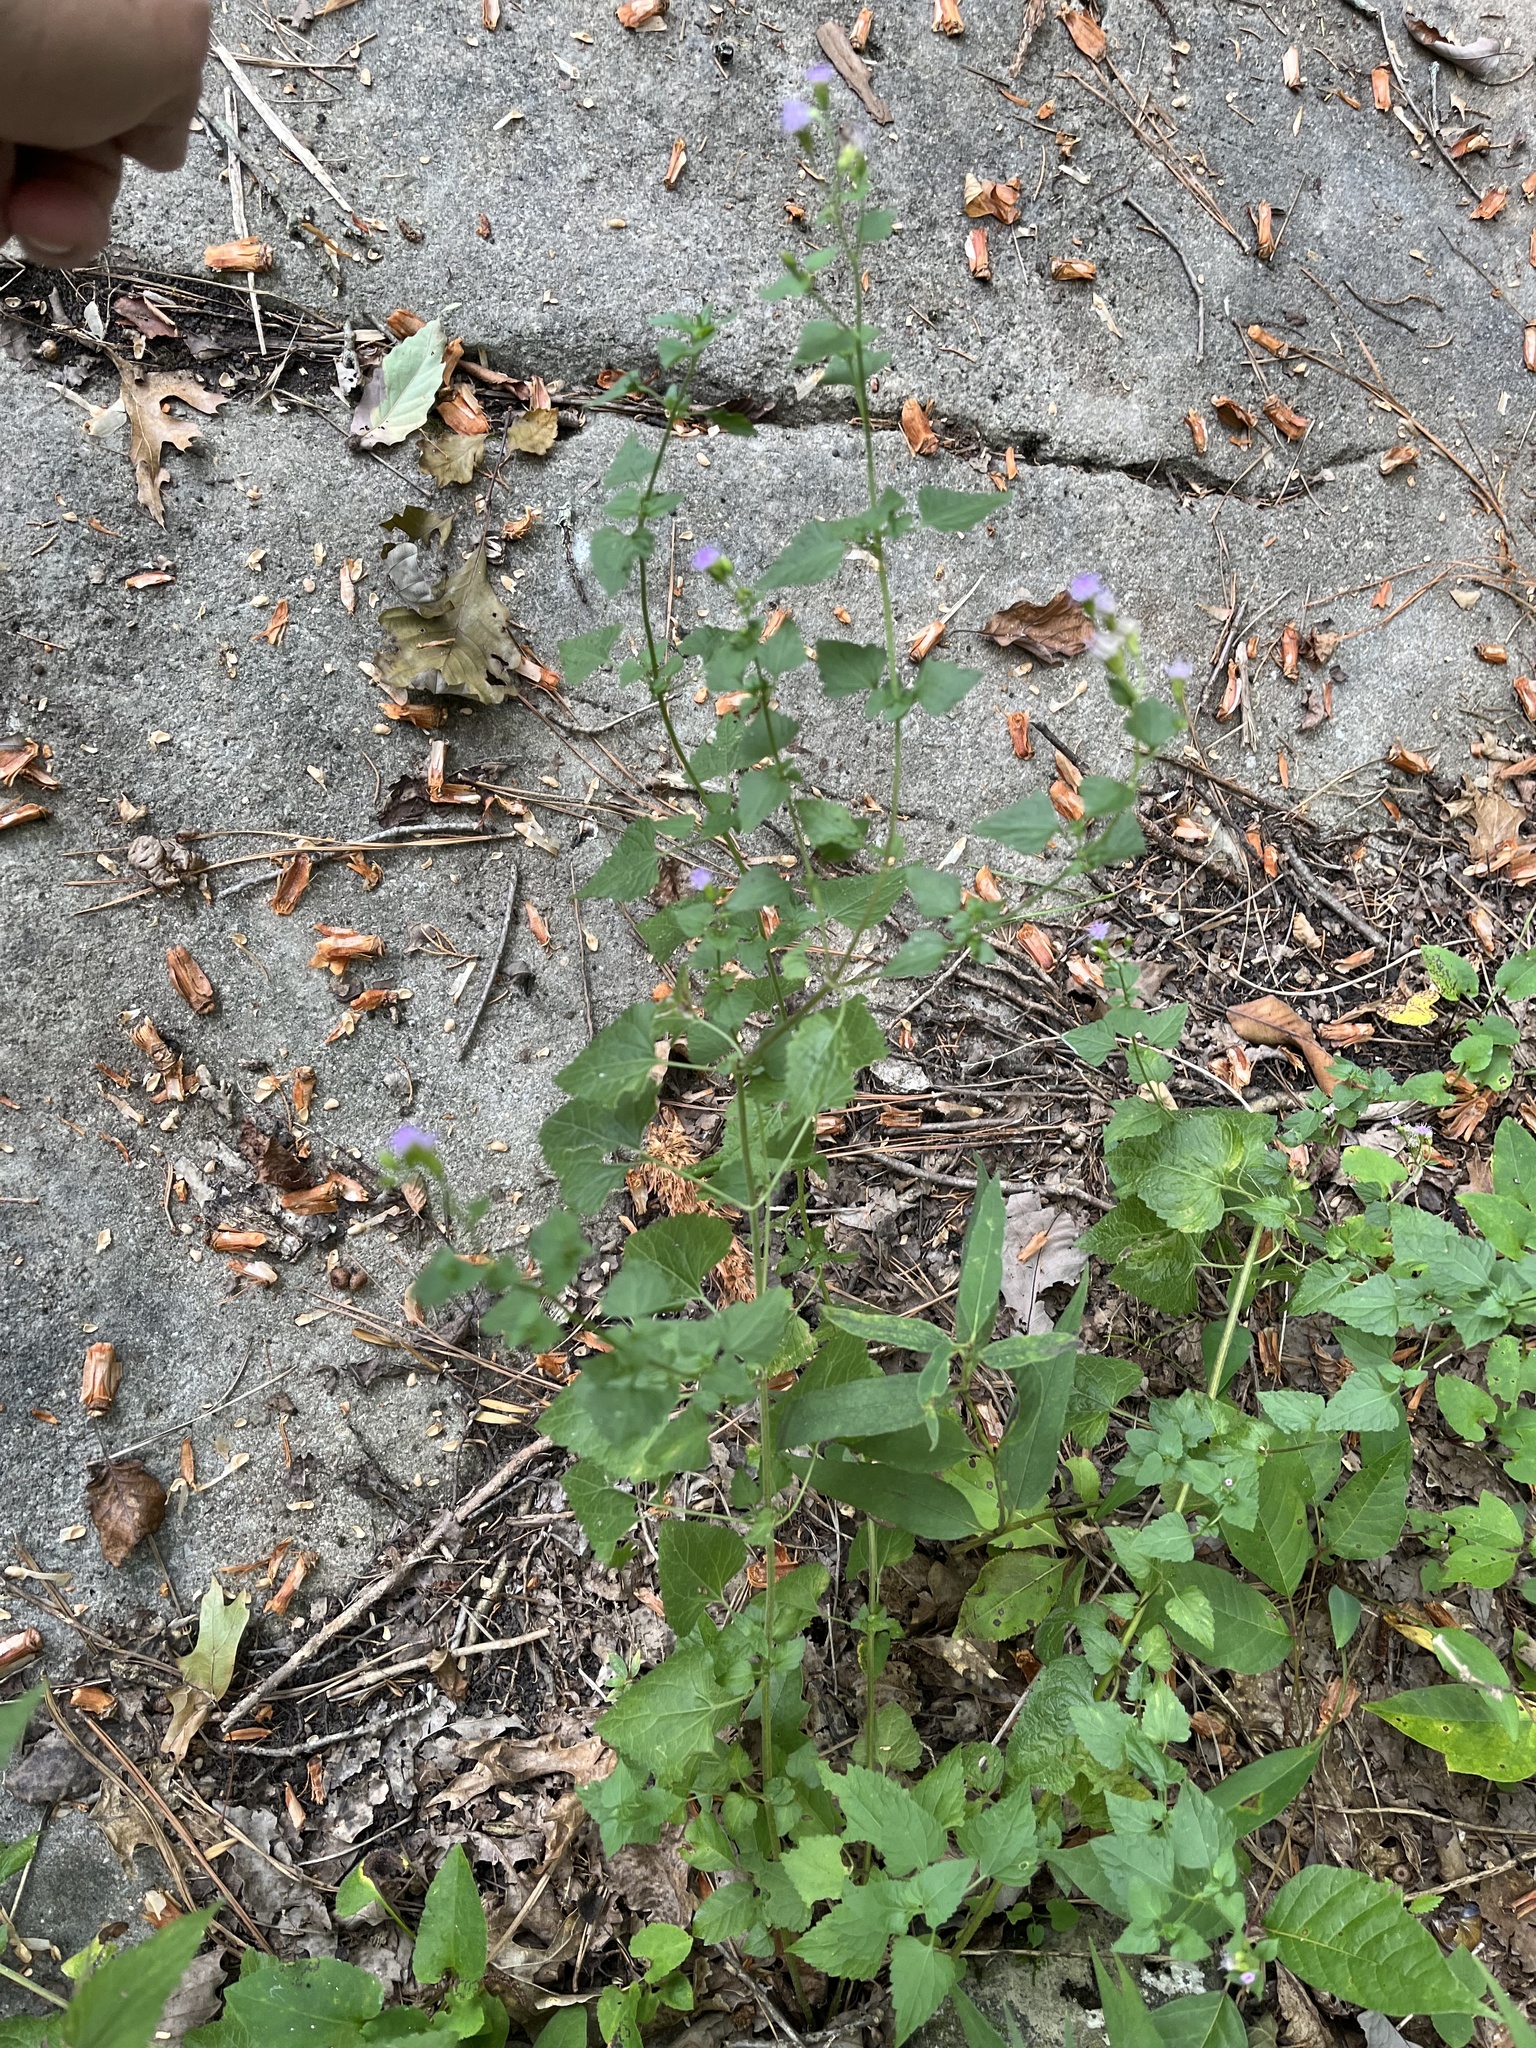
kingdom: Plantae
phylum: Tracheophyta
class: Magnoliopsida
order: Asterales
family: Asteraceae
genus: Fleischmannia
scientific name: Fleischmannia incarnata
